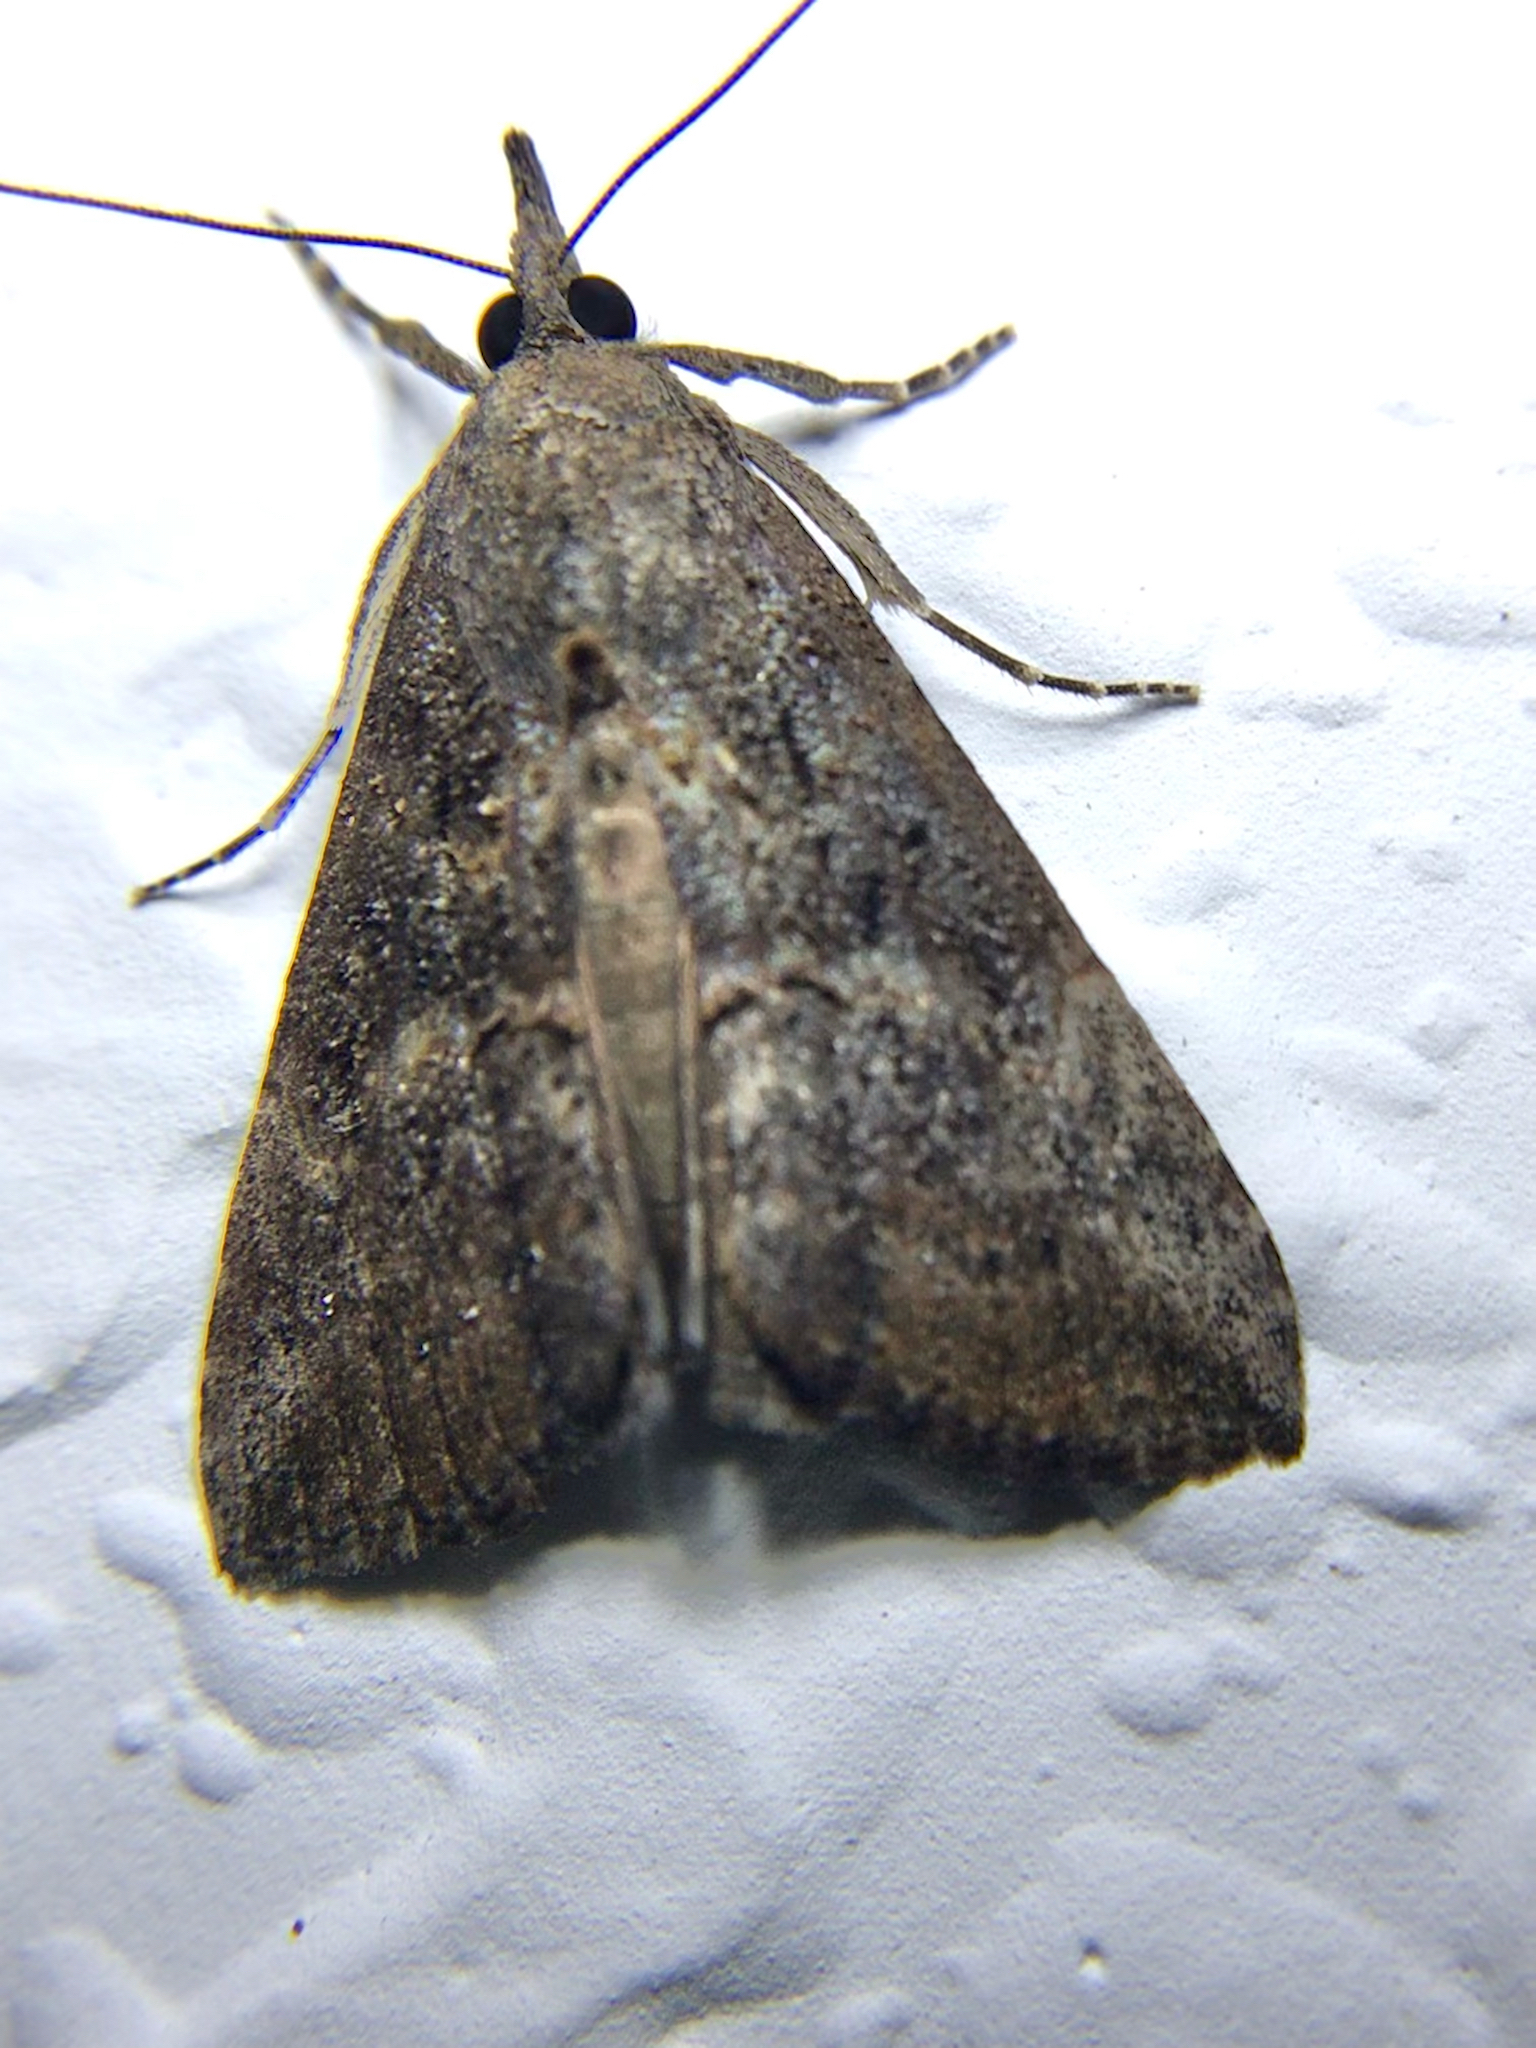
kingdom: Animalia
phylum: Arthropoda
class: Insecta
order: Lepidoptera
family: Erebidae
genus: Hypena
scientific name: Hypena scabra
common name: Green cloverworm
